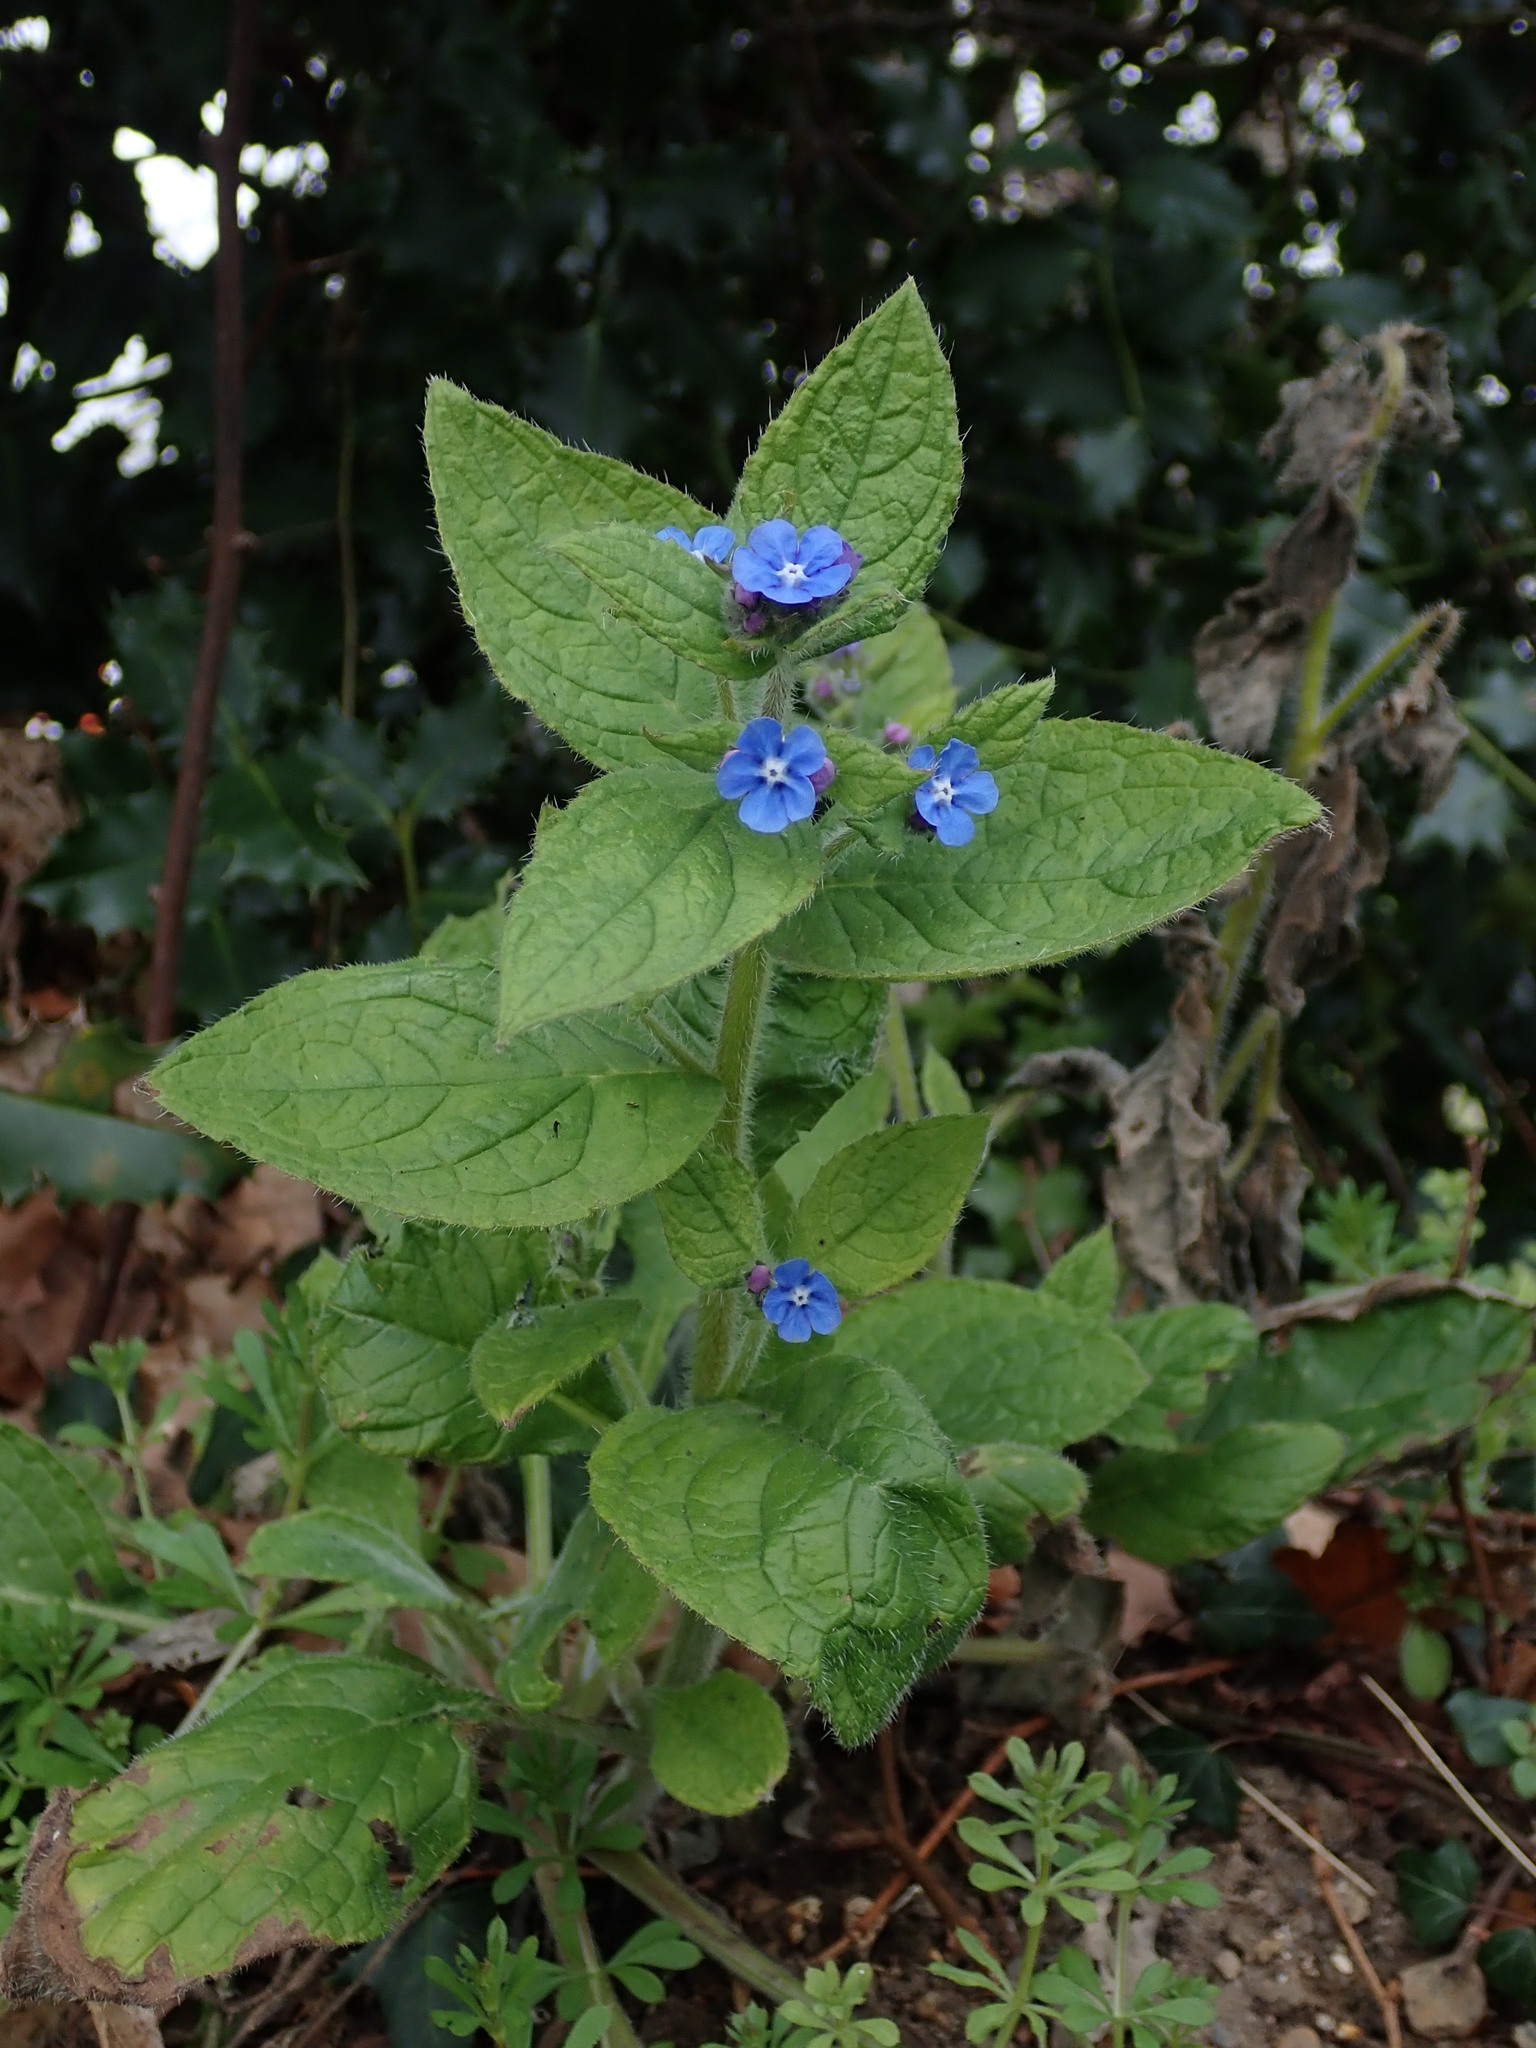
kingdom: Plantae
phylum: Tracheophyta
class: Magnoliopsida
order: Boraginales
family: Boraginaceae
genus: Pentaglottis
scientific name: Pentaglottis sempervirens
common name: Green alkanet
